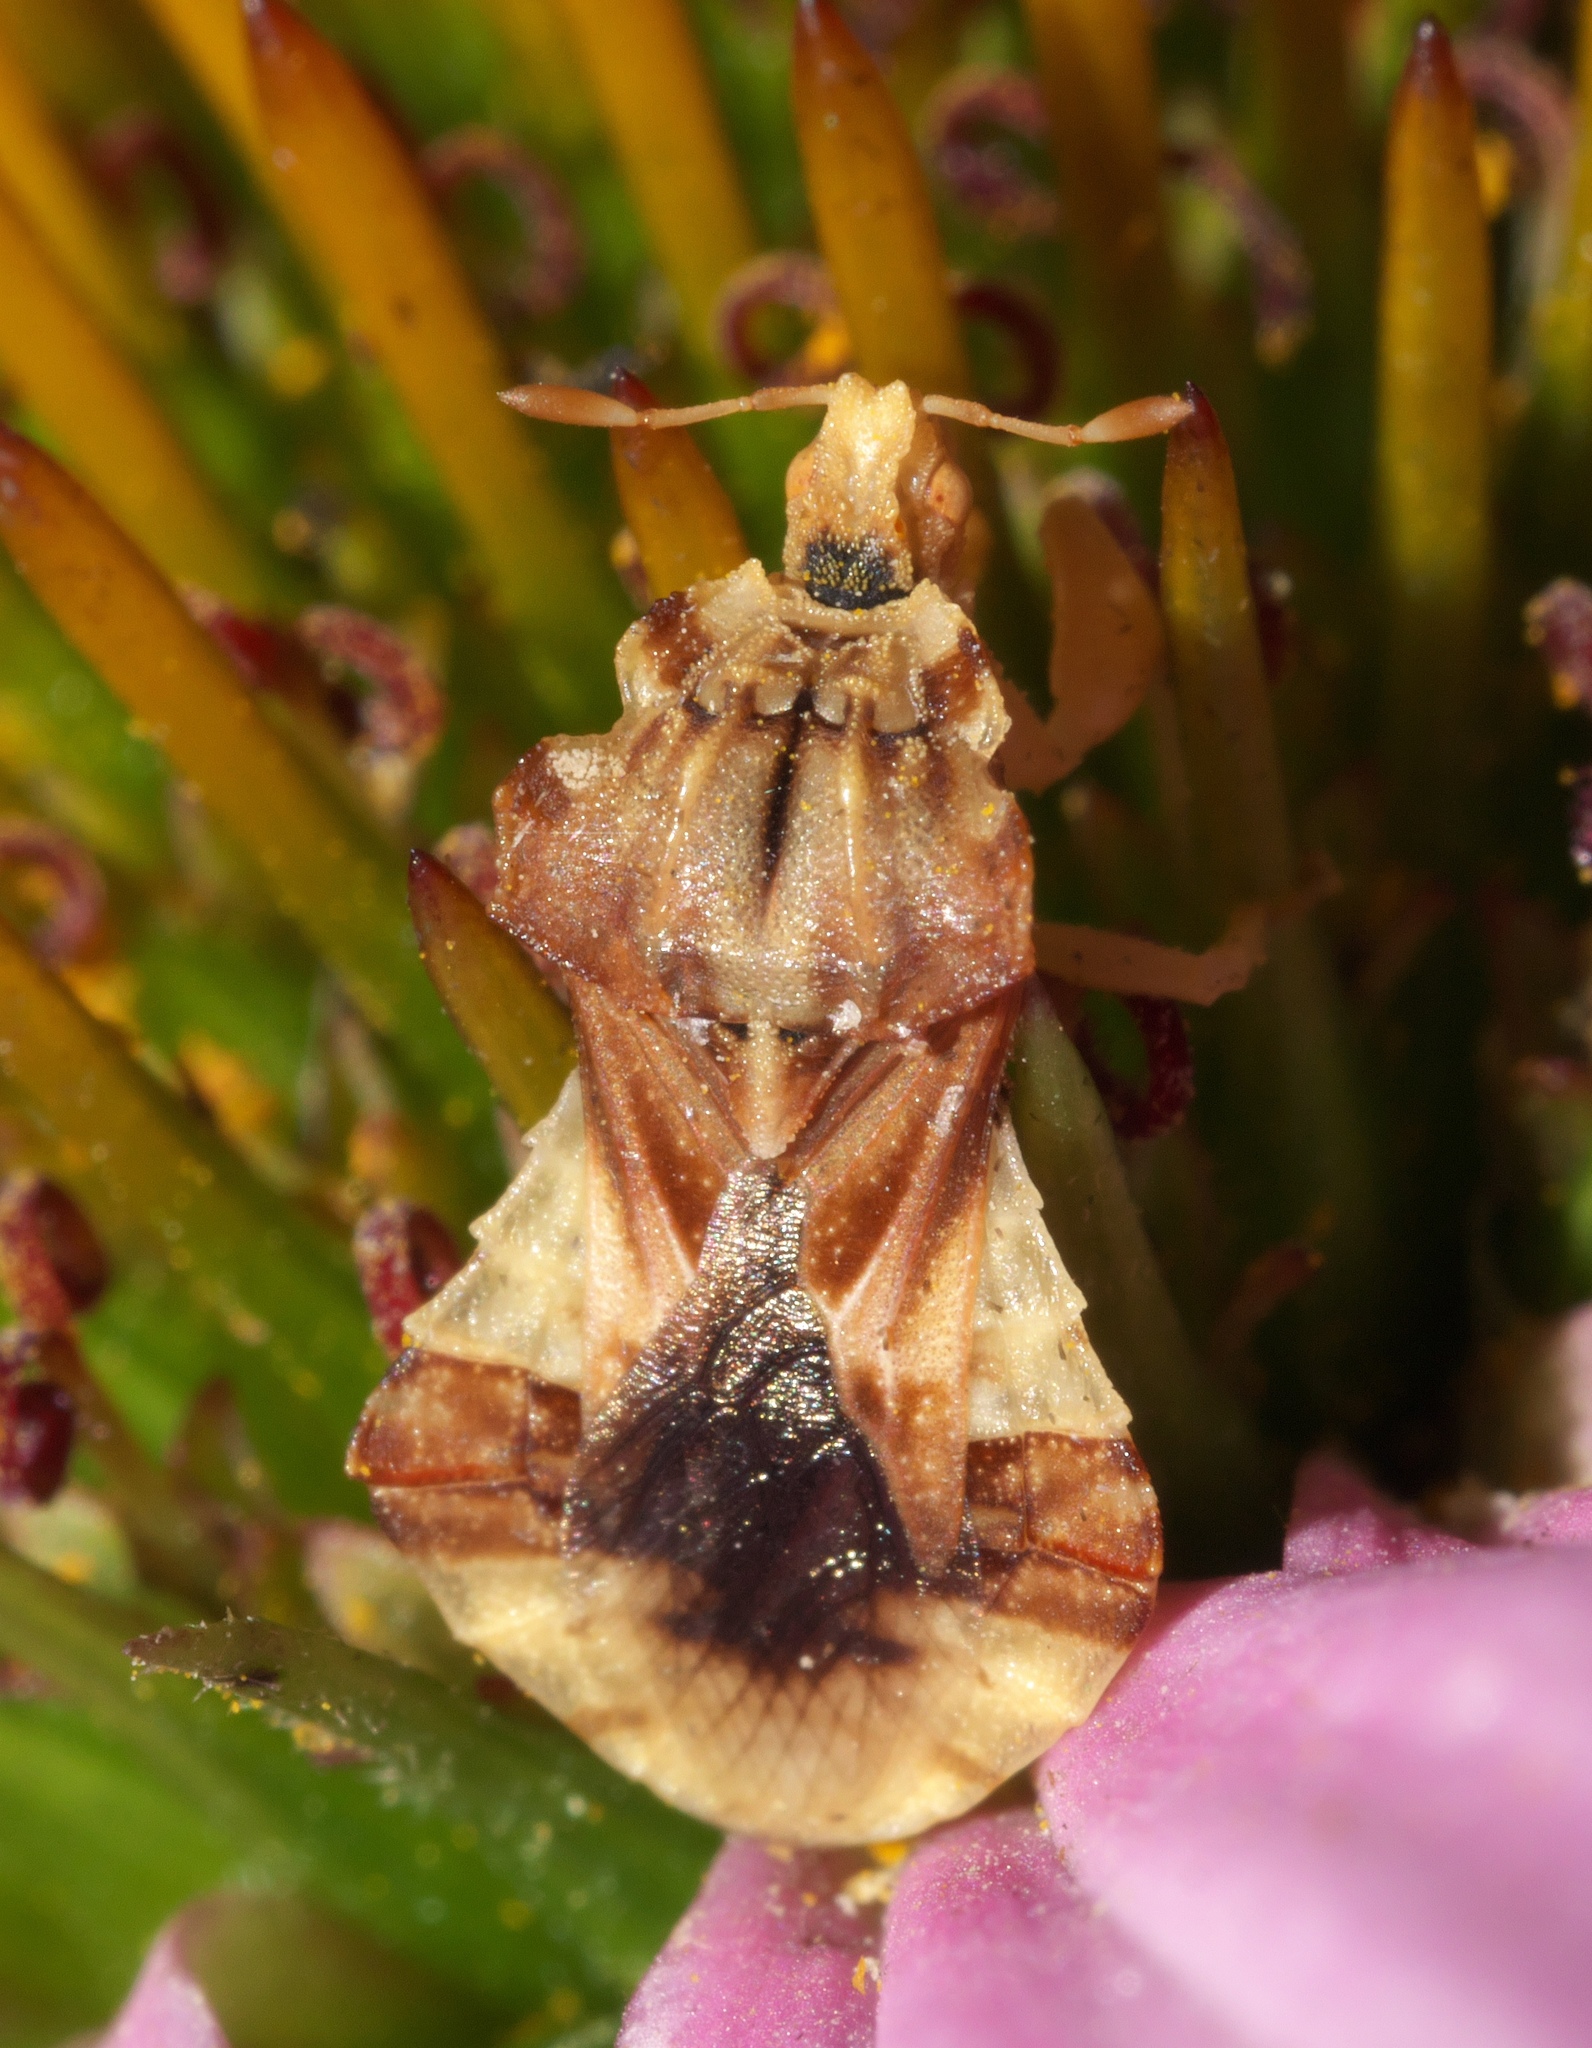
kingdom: Animalia
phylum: Arthropoda
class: Insecta
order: Hemiptera
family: Reduviidae
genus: Phymata
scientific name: Phymata fasciata
